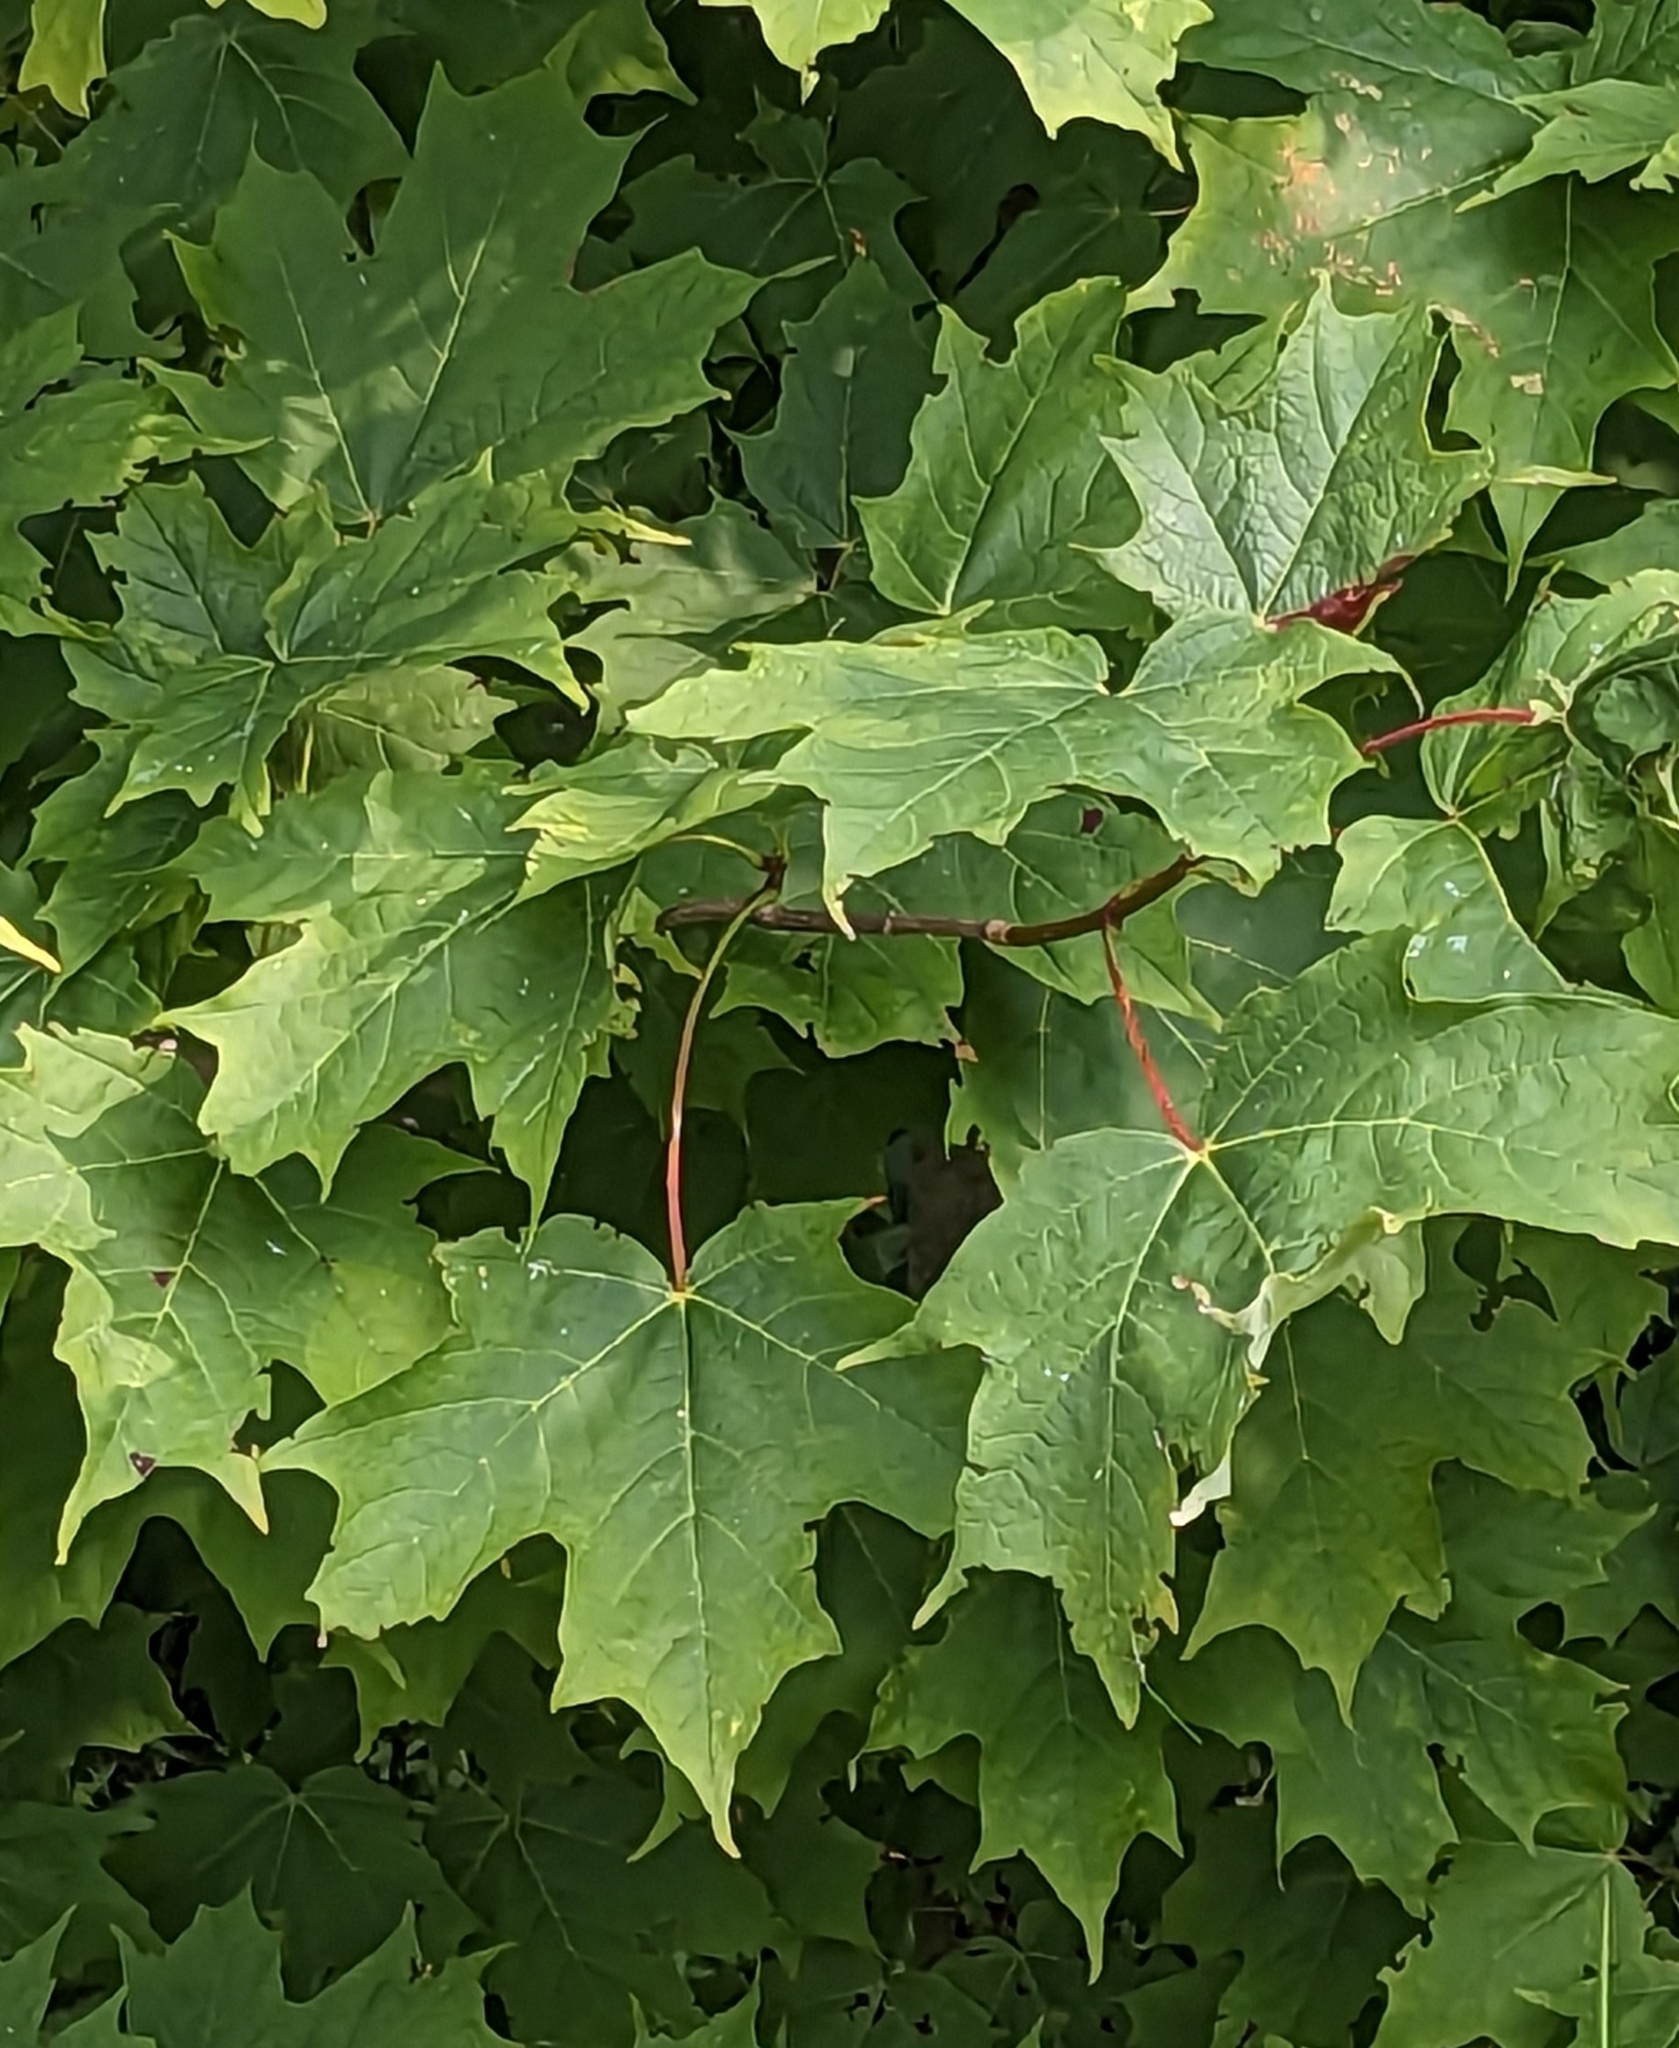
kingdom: Plantae
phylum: Tracheophyta
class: Magnoliopsida
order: Sapindales
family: Sapindaceae
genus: Acer
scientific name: Acer saccharum
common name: Sugar maple
